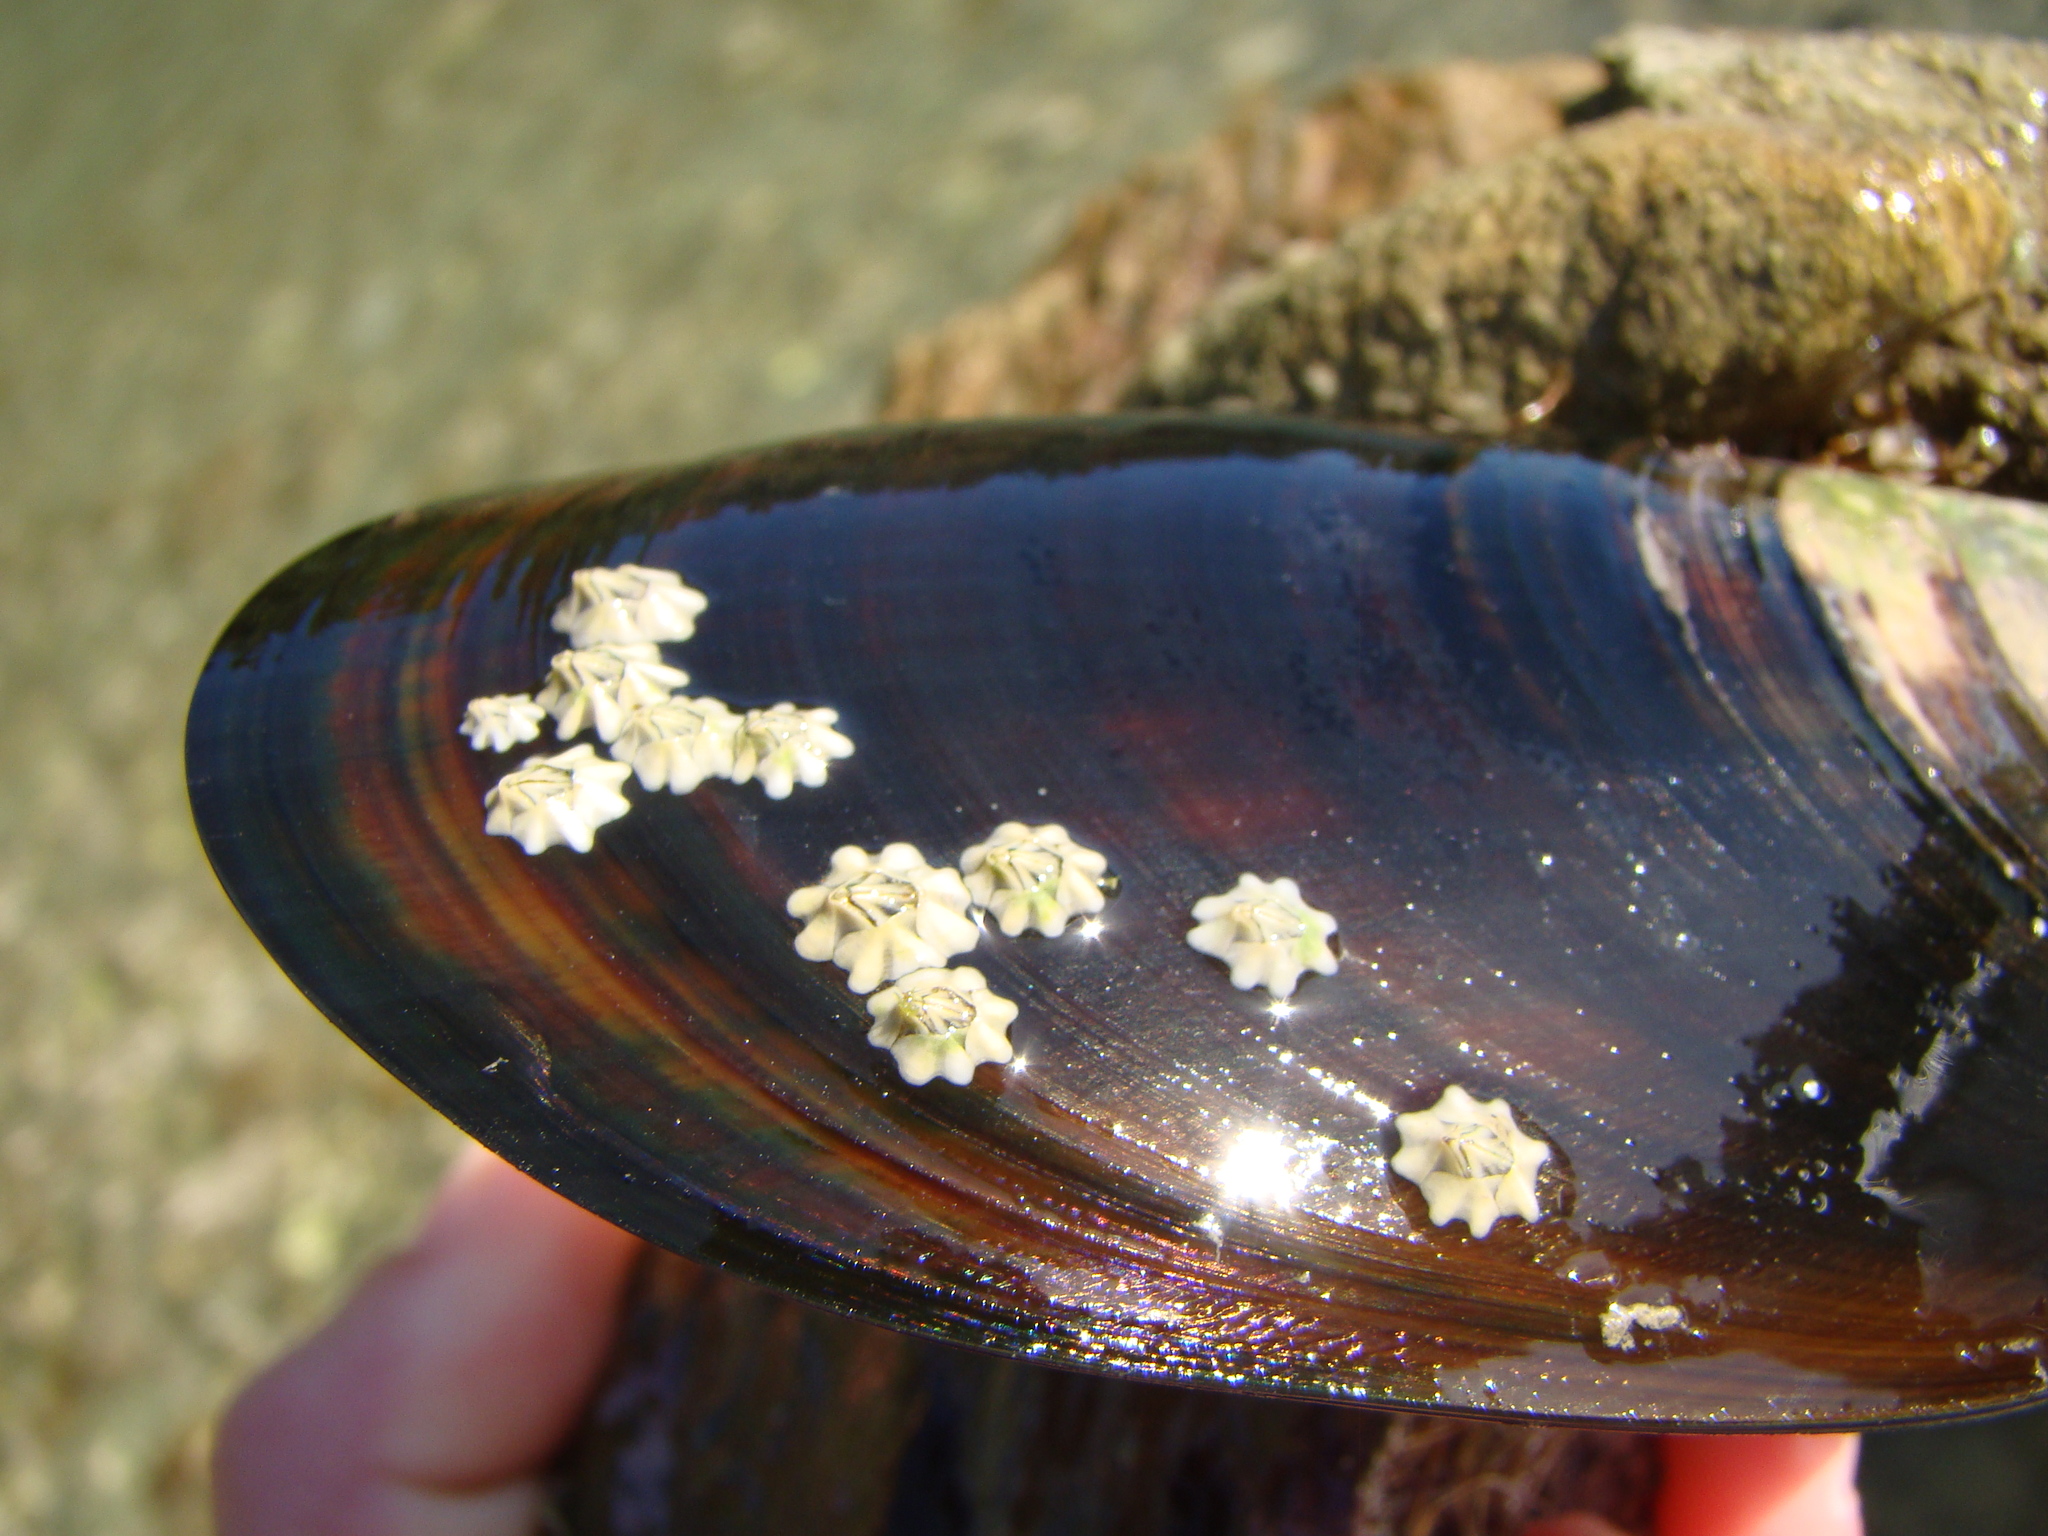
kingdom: Animalia
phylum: Arthropoda
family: Elminiidae
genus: Austrominius
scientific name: Austrominius modestus
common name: Australasian barnacle
